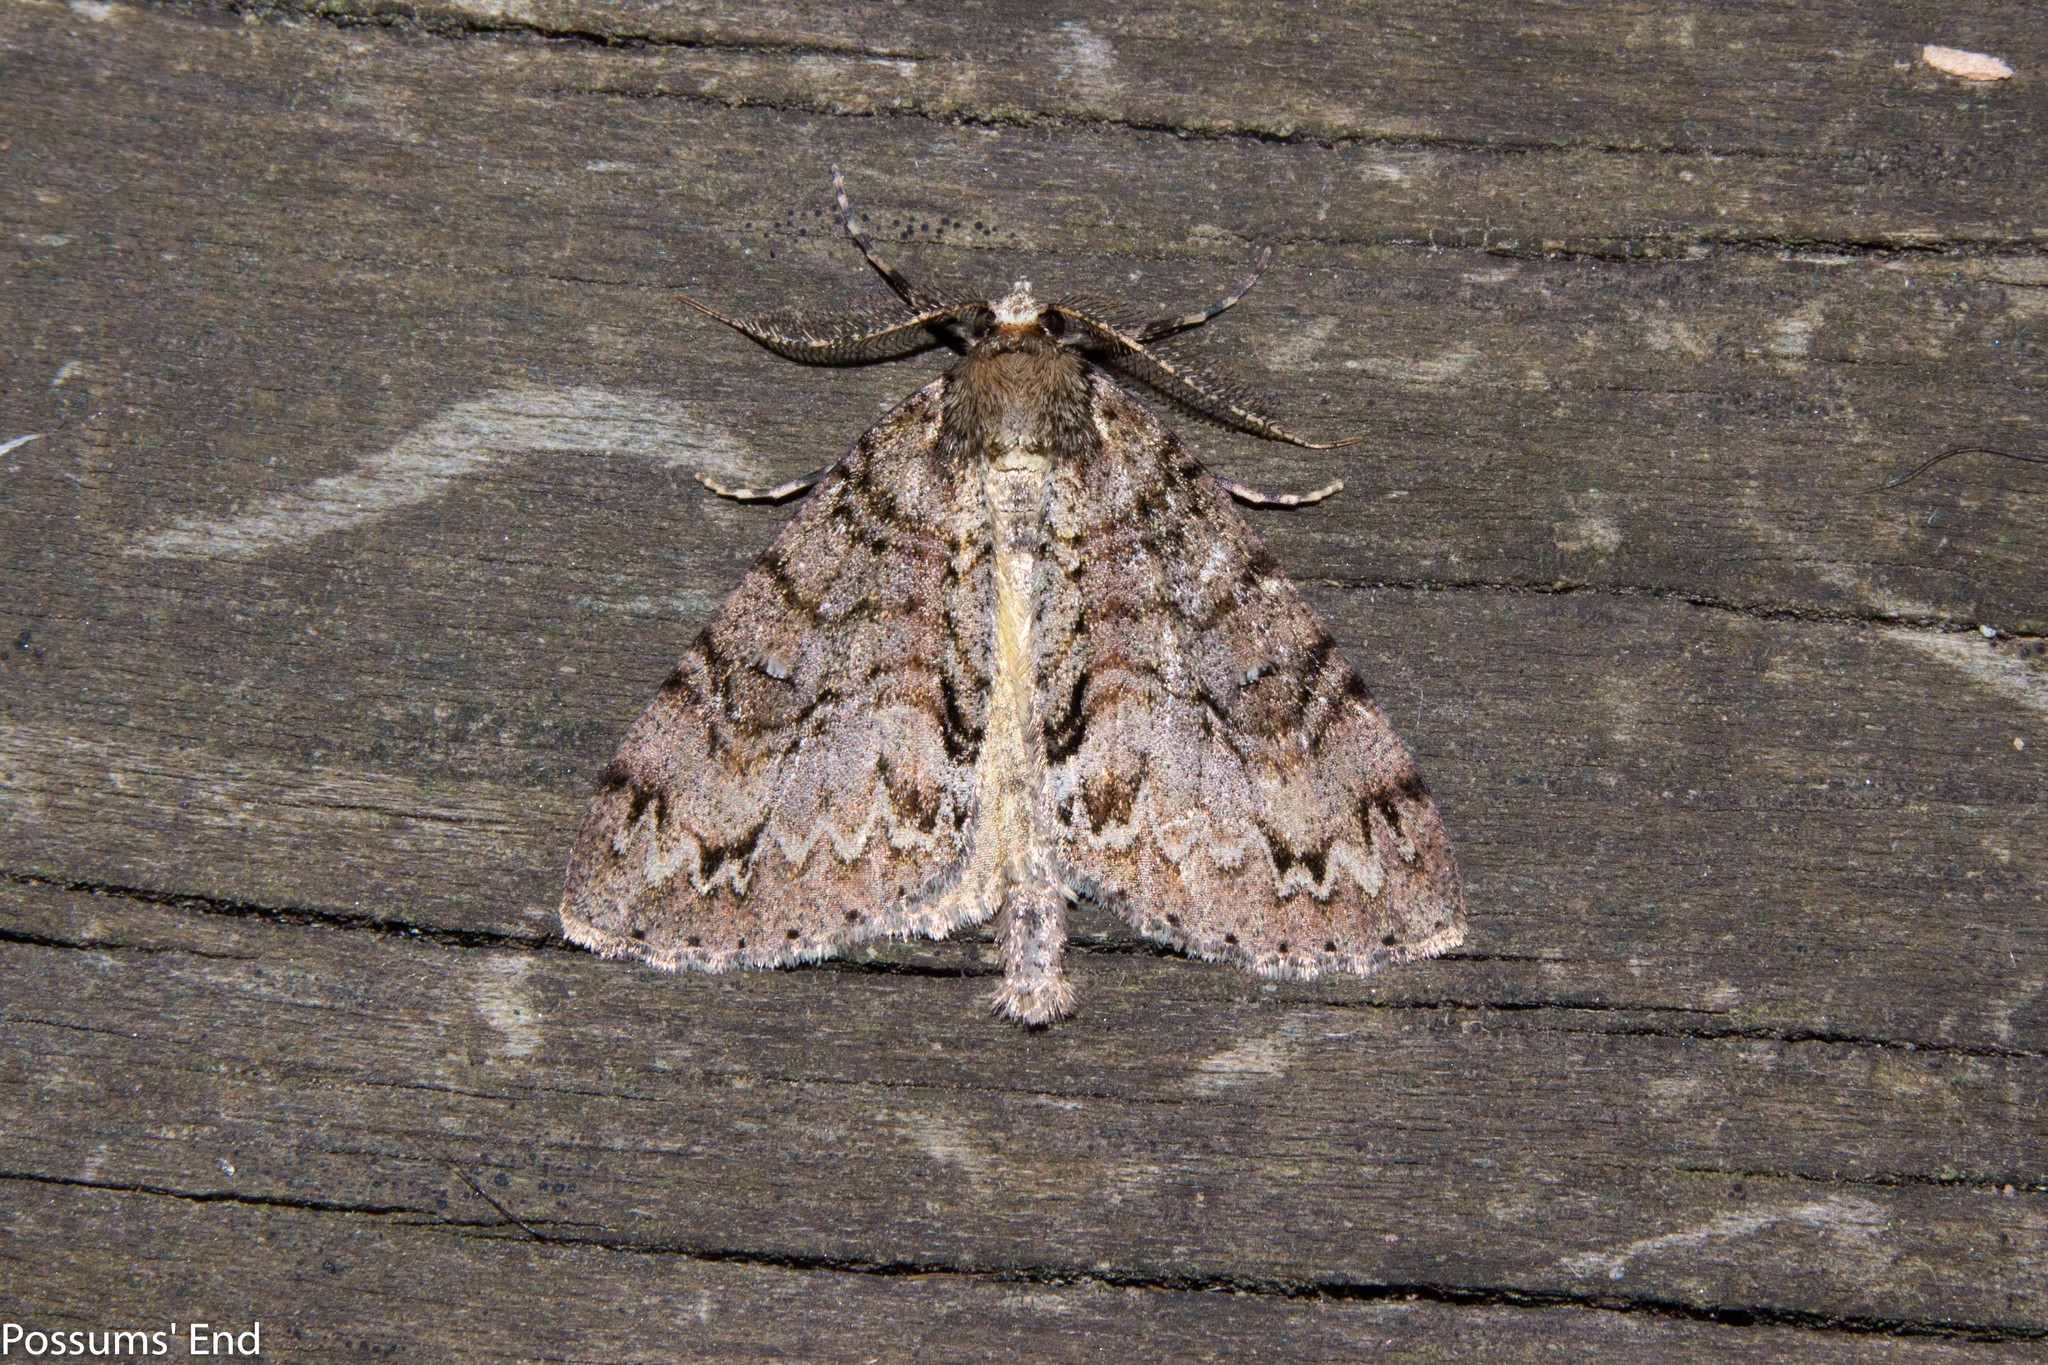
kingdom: Animalia
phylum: Arthropoda
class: Insecta
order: Lepidoptera
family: Geometridae
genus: Pseudocoremia
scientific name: Pseudocoremia suavis
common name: Common forest looper
